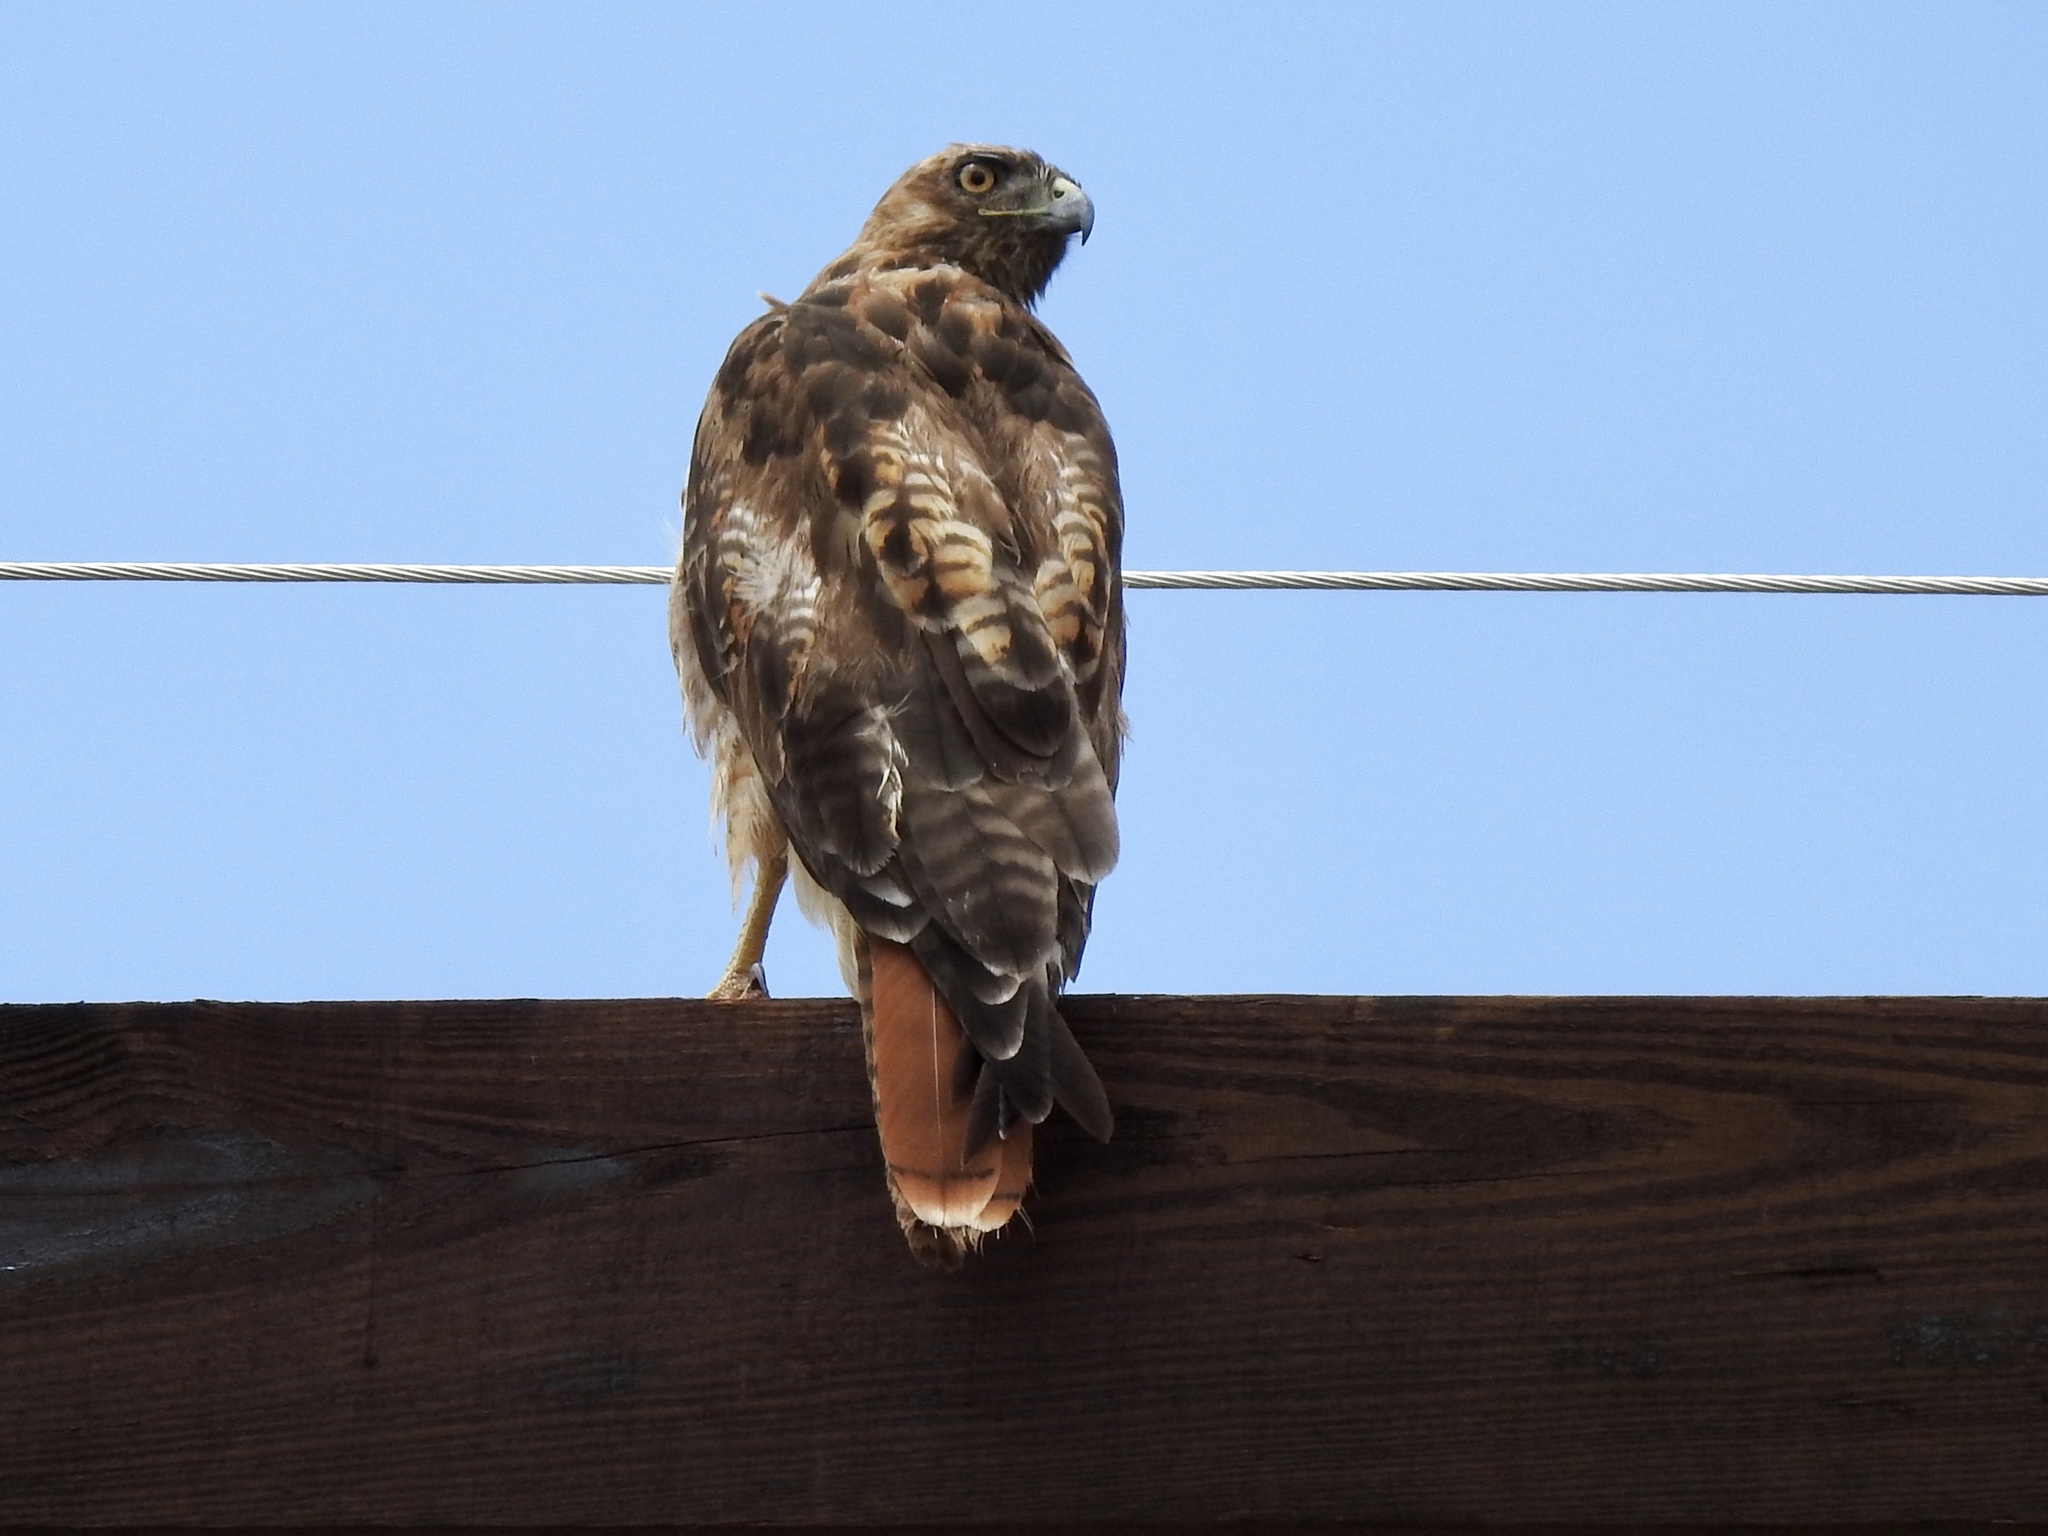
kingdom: Animalia
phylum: Chordata
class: Aves
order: Accipitriformes
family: Accipitridae
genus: Buteo
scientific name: Buteo jamaicensis
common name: Red-tailed hawk
